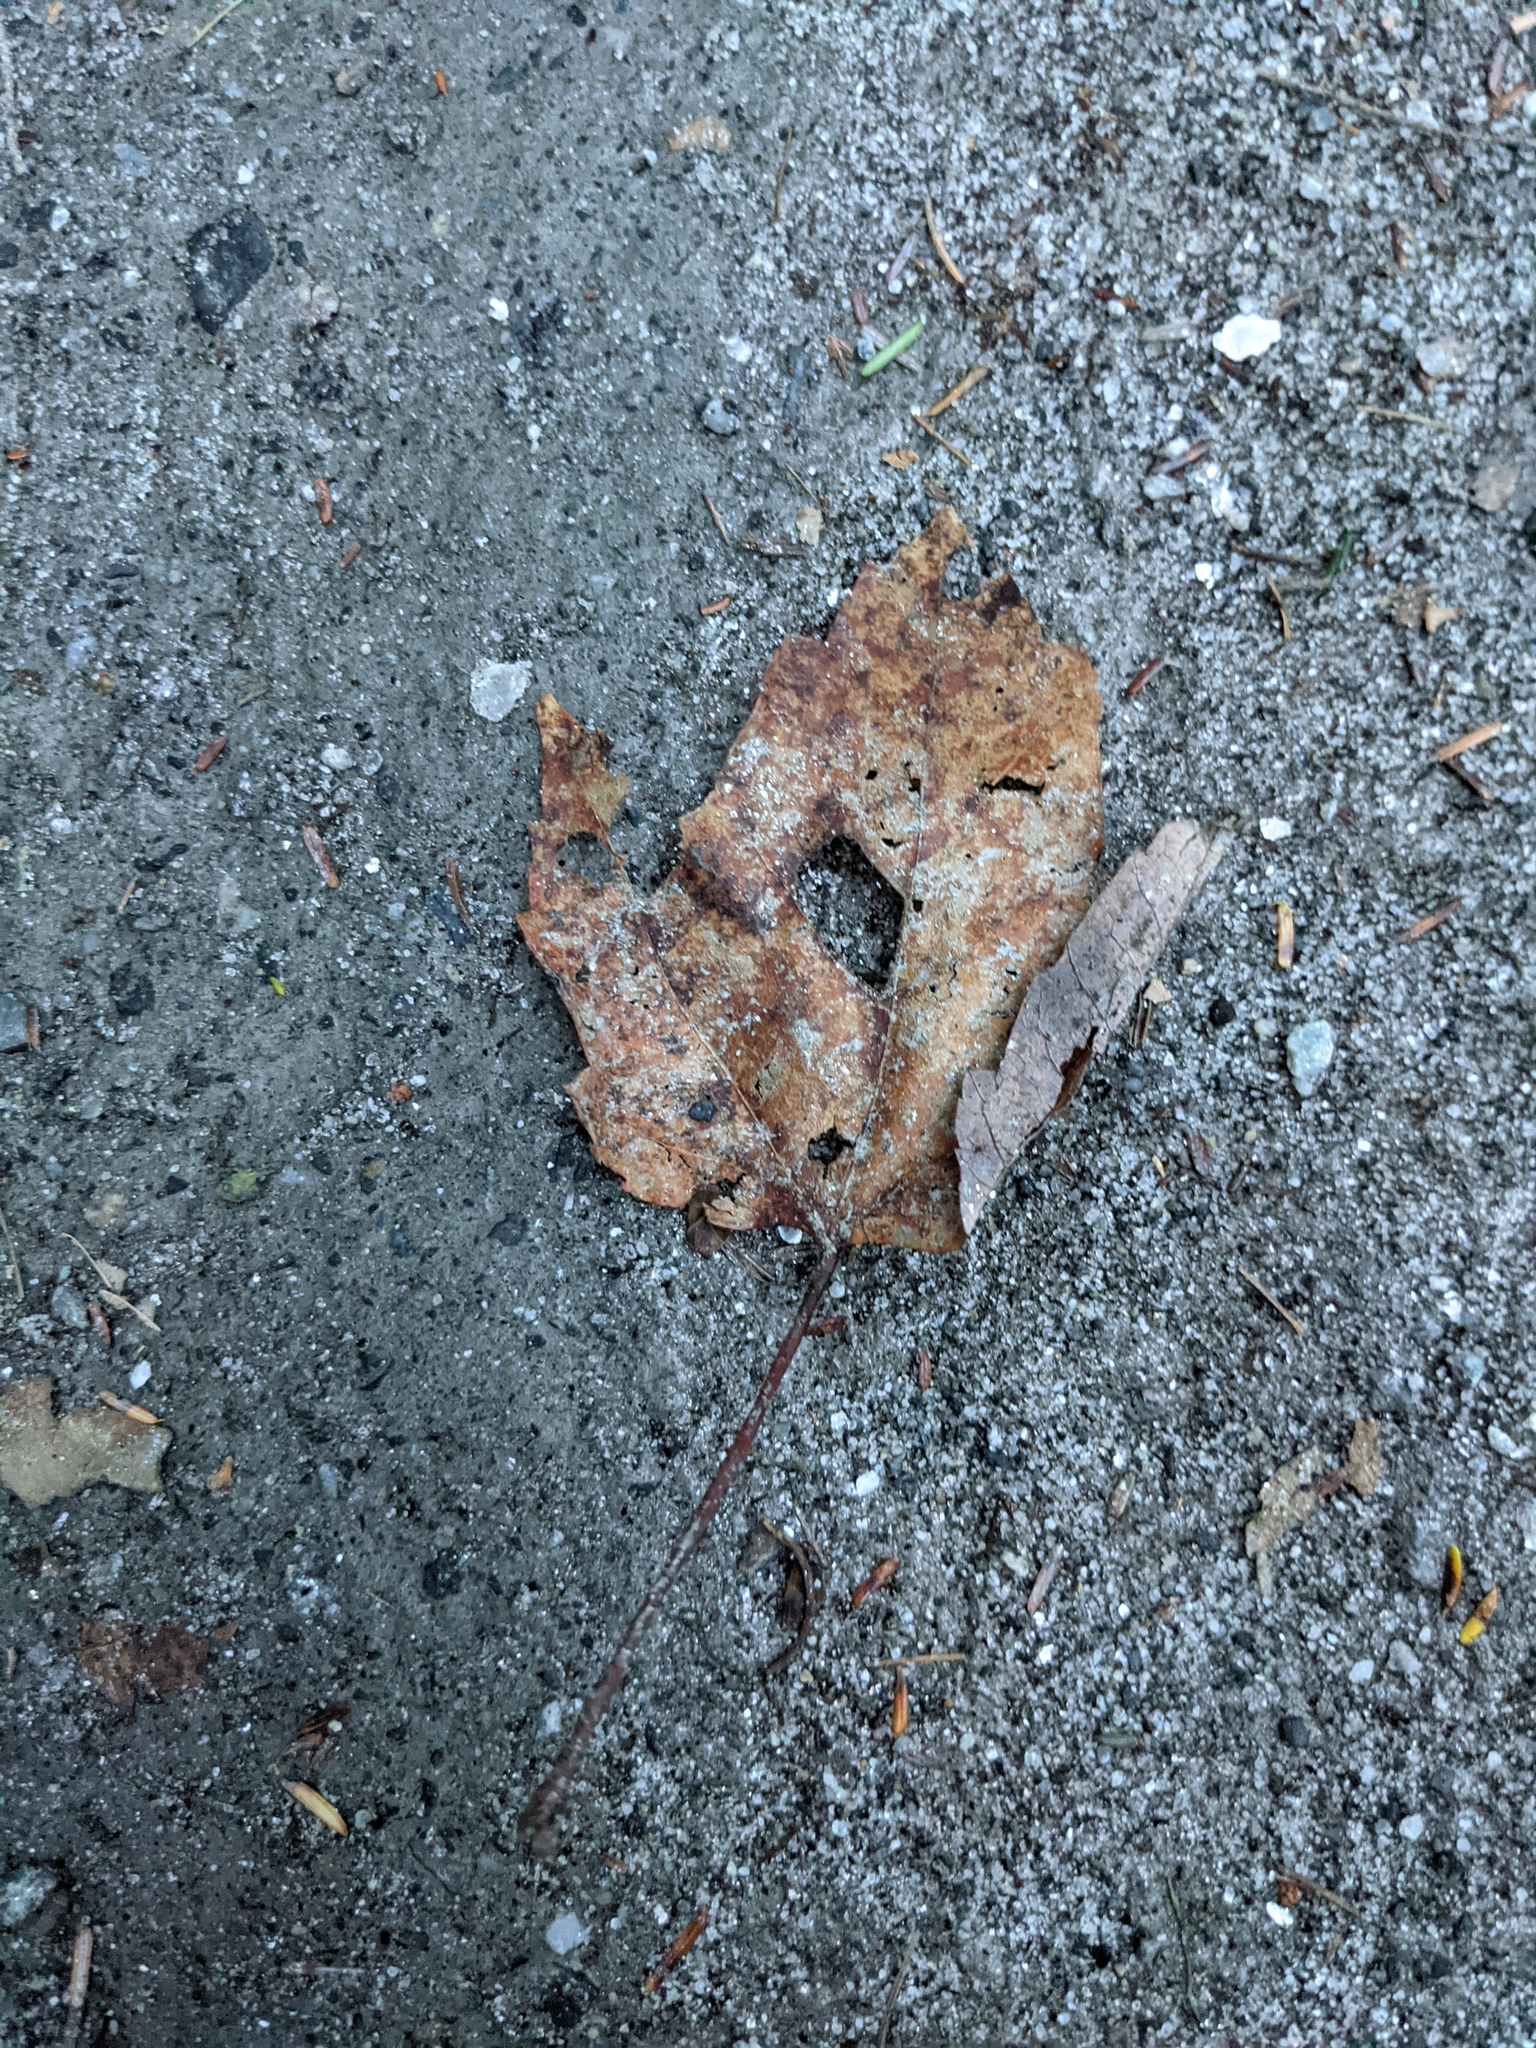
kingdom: Plantae
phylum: Tracheophyta
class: Magnoliopsida
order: Sapindales
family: Sapindaceae
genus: Acer
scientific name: Acer rubrum
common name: Red maple
